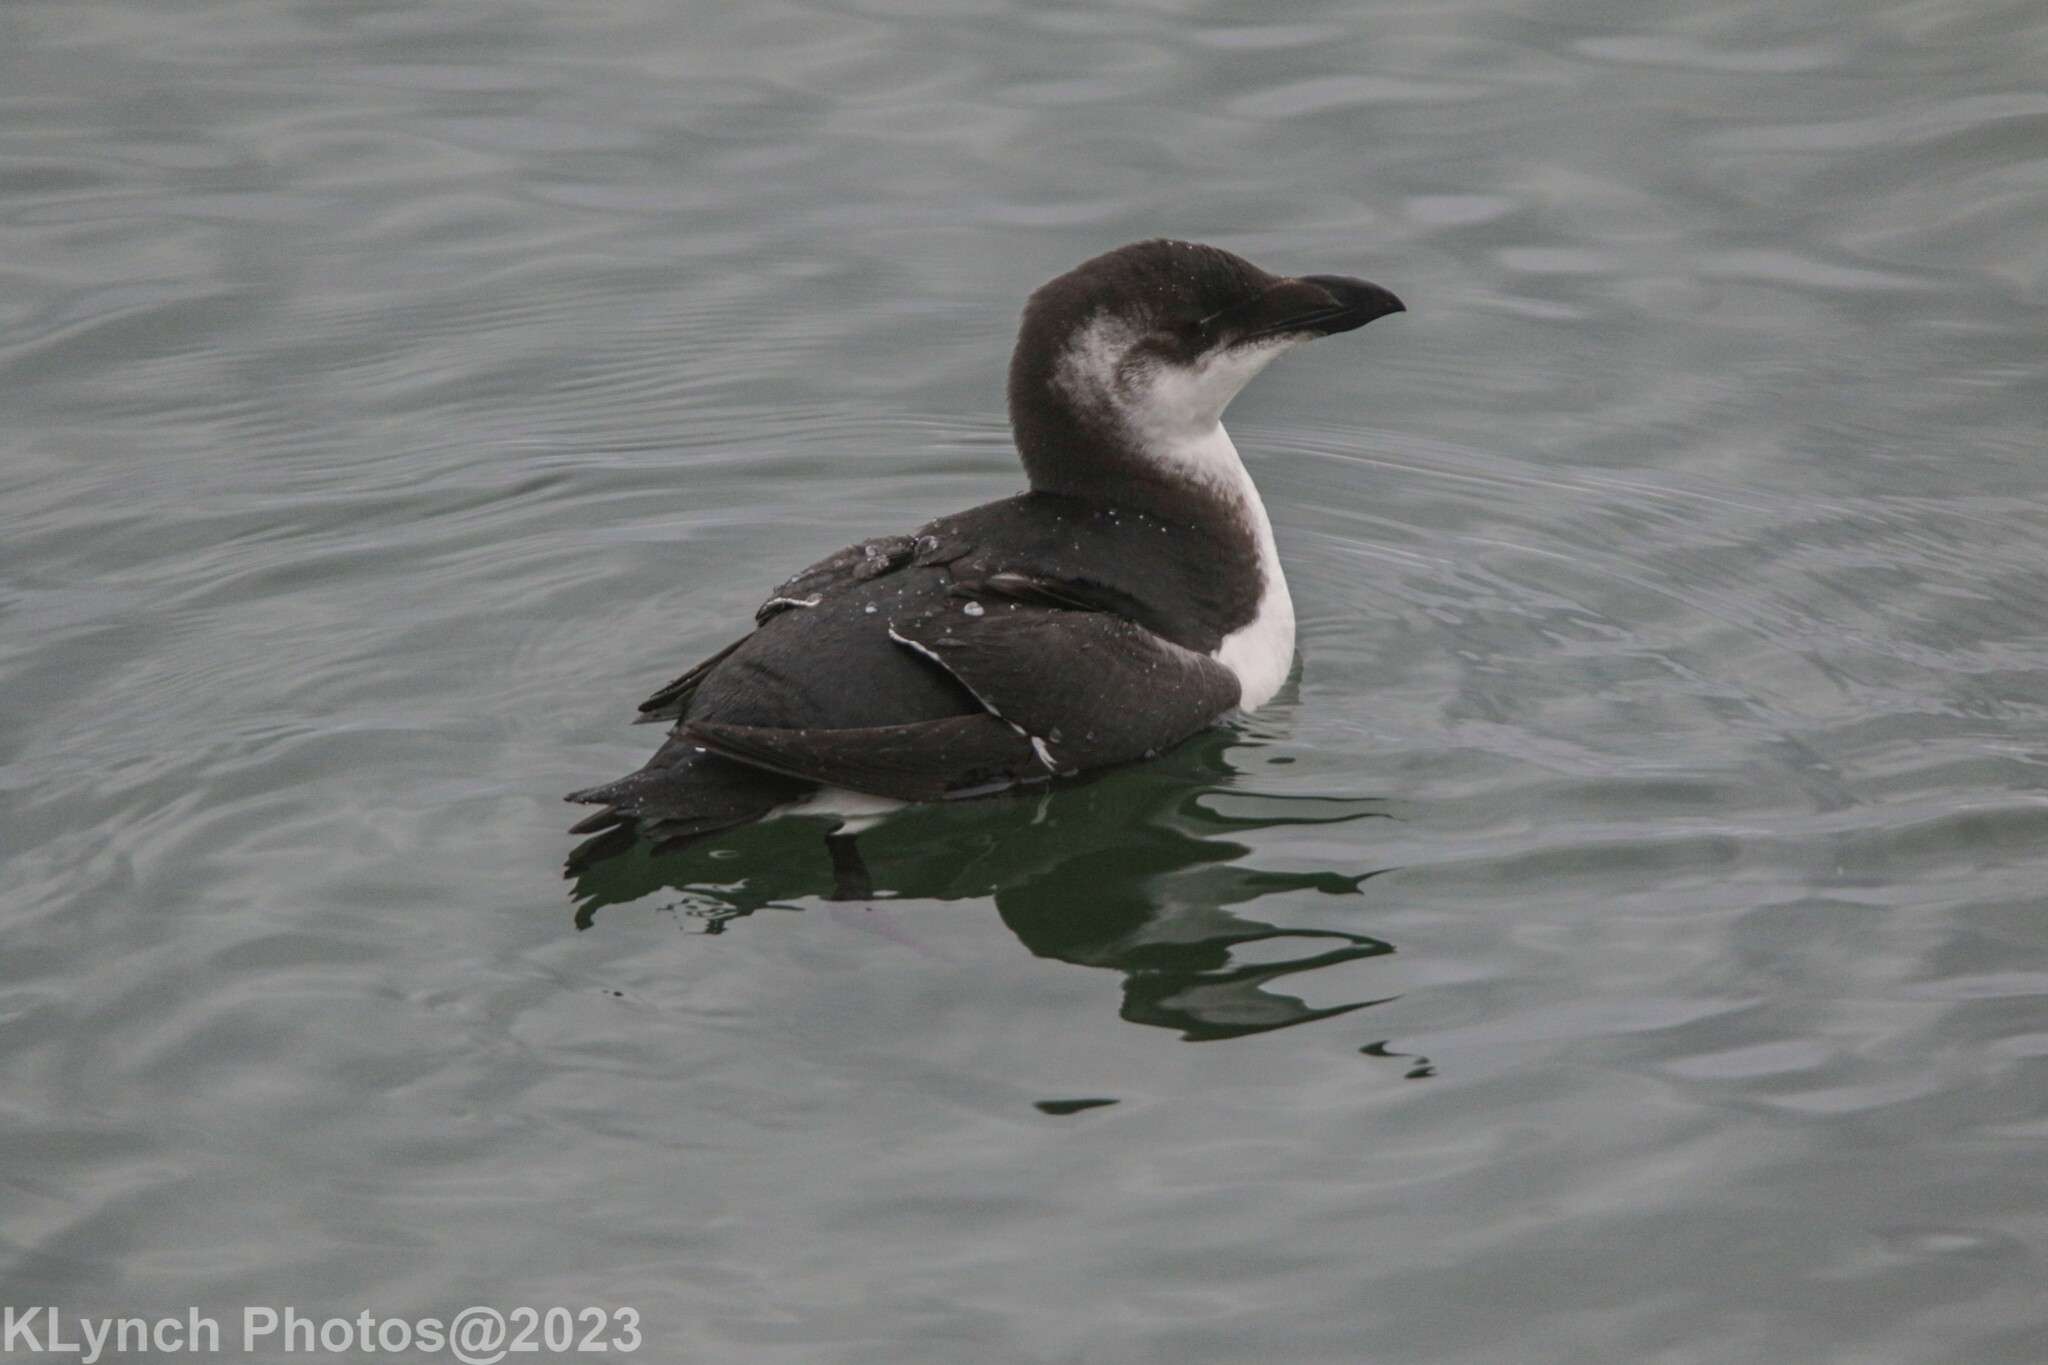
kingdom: Animalia
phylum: Chordata
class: Aves
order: Charadriiformes
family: Alcidae
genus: Alca
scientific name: Alca torda
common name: Razorbill
